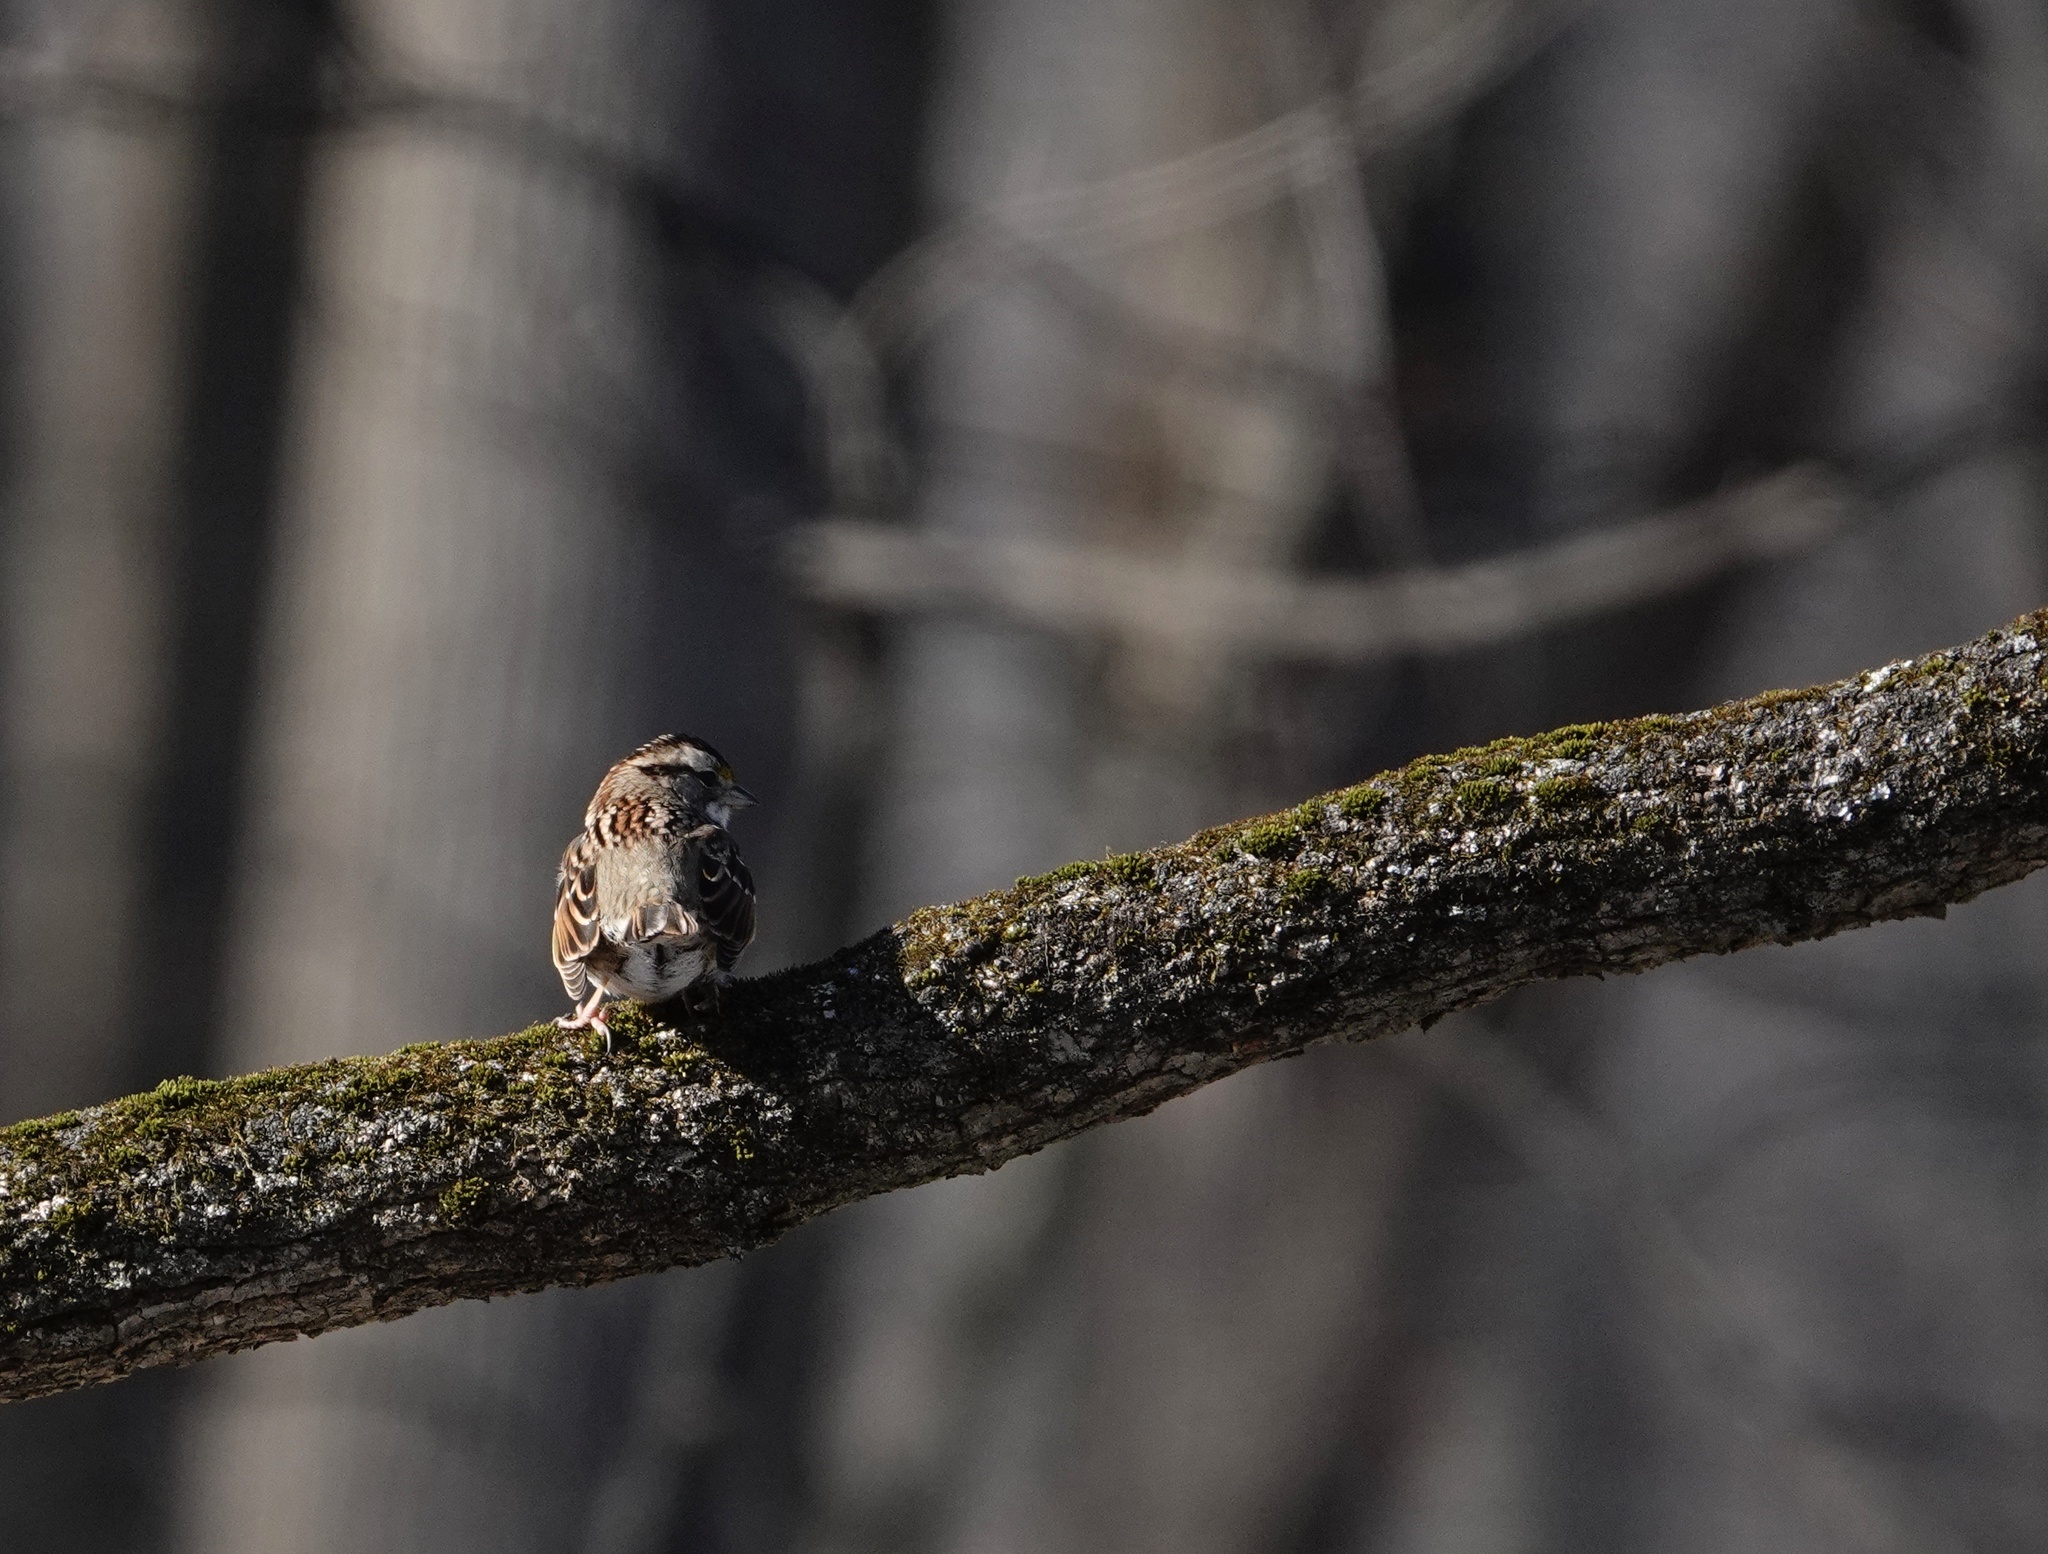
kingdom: Animalia
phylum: Chordata
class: Aves
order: Passeriformes
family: Passerellidae
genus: Zonotrichia
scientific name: Zonotrichia albicollis
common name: White-throated sparrow
